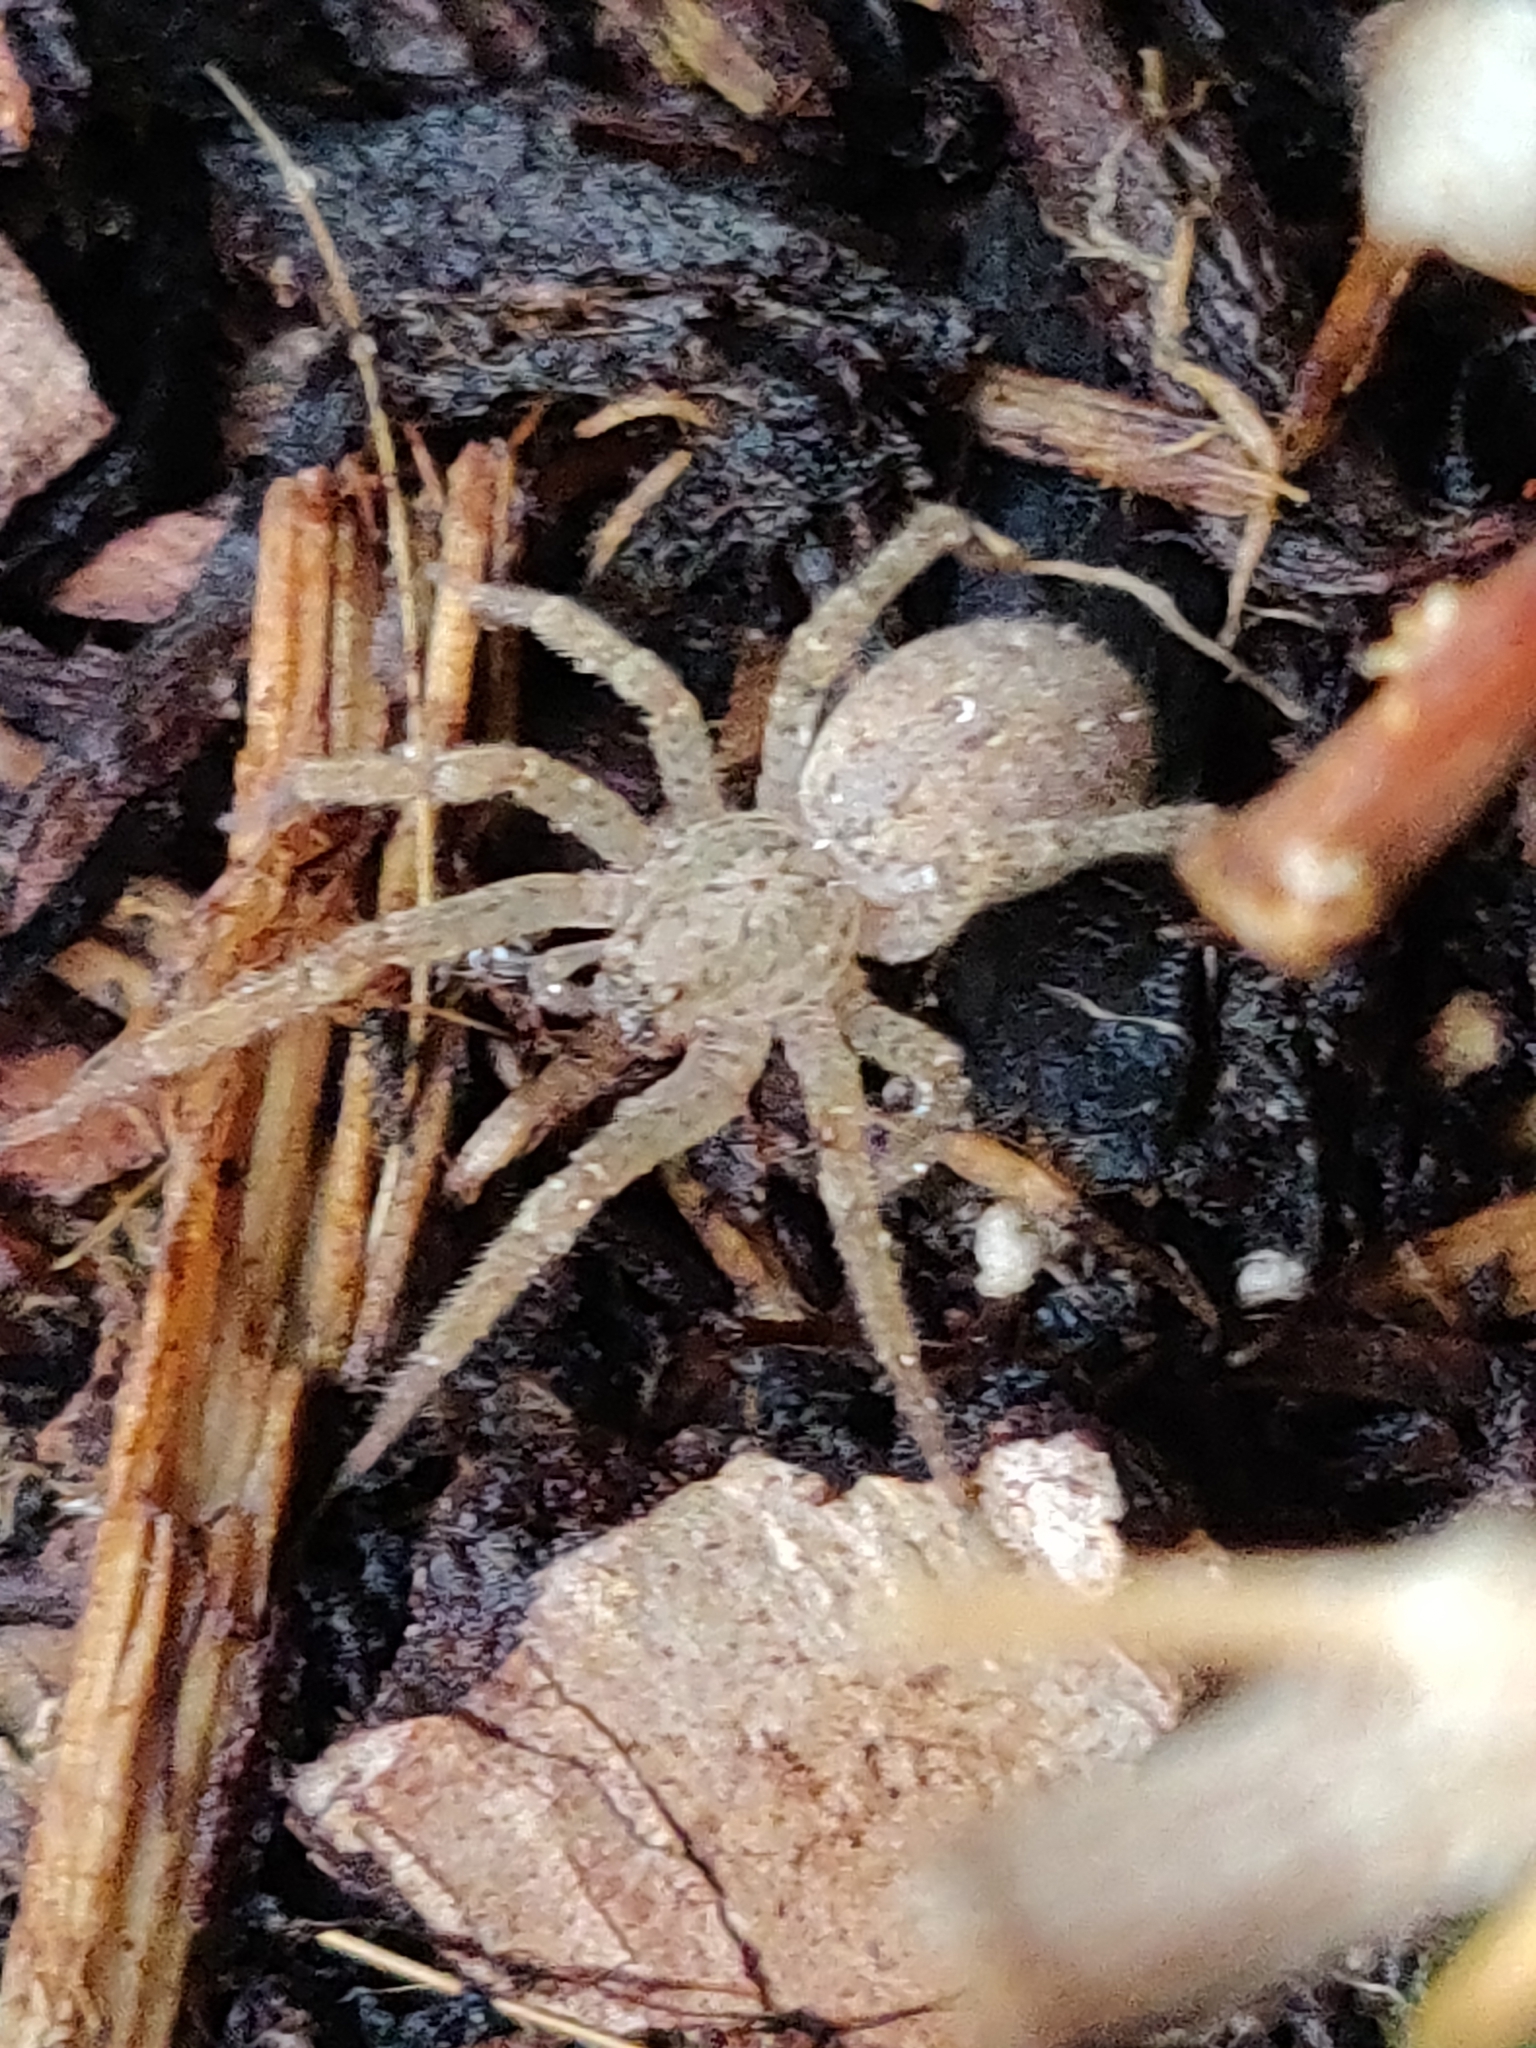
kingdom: Animalia
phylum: Arthropoda
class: Arachnida
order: Araneae
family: Zoropsidae
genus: Zoropsis
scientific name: Zoropsis spinimana
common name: Zoropsid spider
